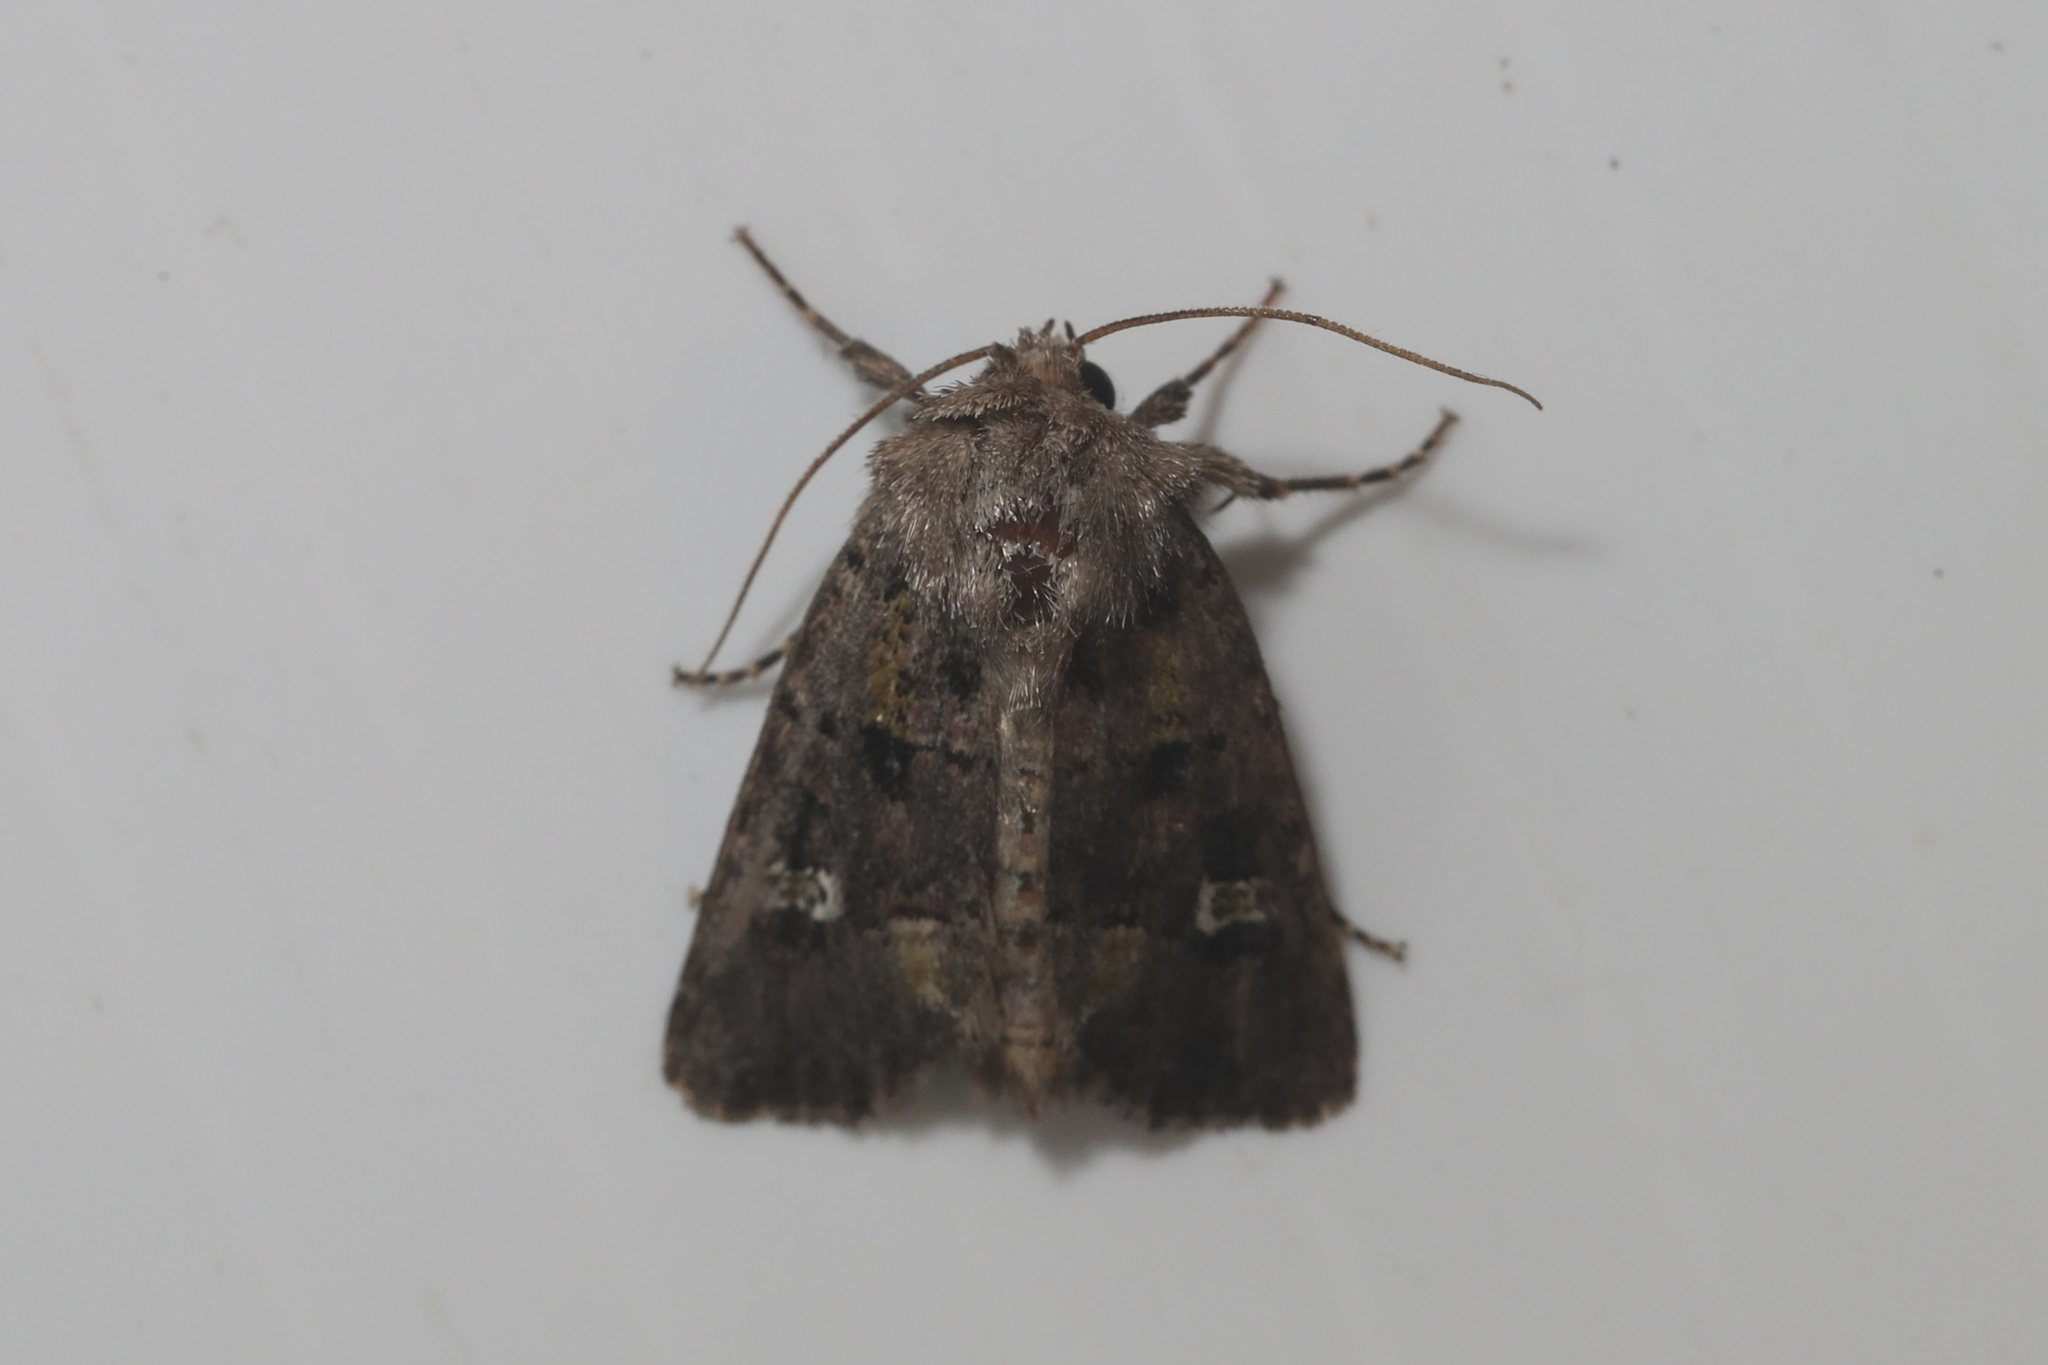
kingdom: Animalia
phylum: Arthropoda
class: Insecta
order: Lepidoptera
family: Noctuidae
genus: Lacinipolia
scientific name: Lacinipolia renigera
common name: Kidney-spotted minor
